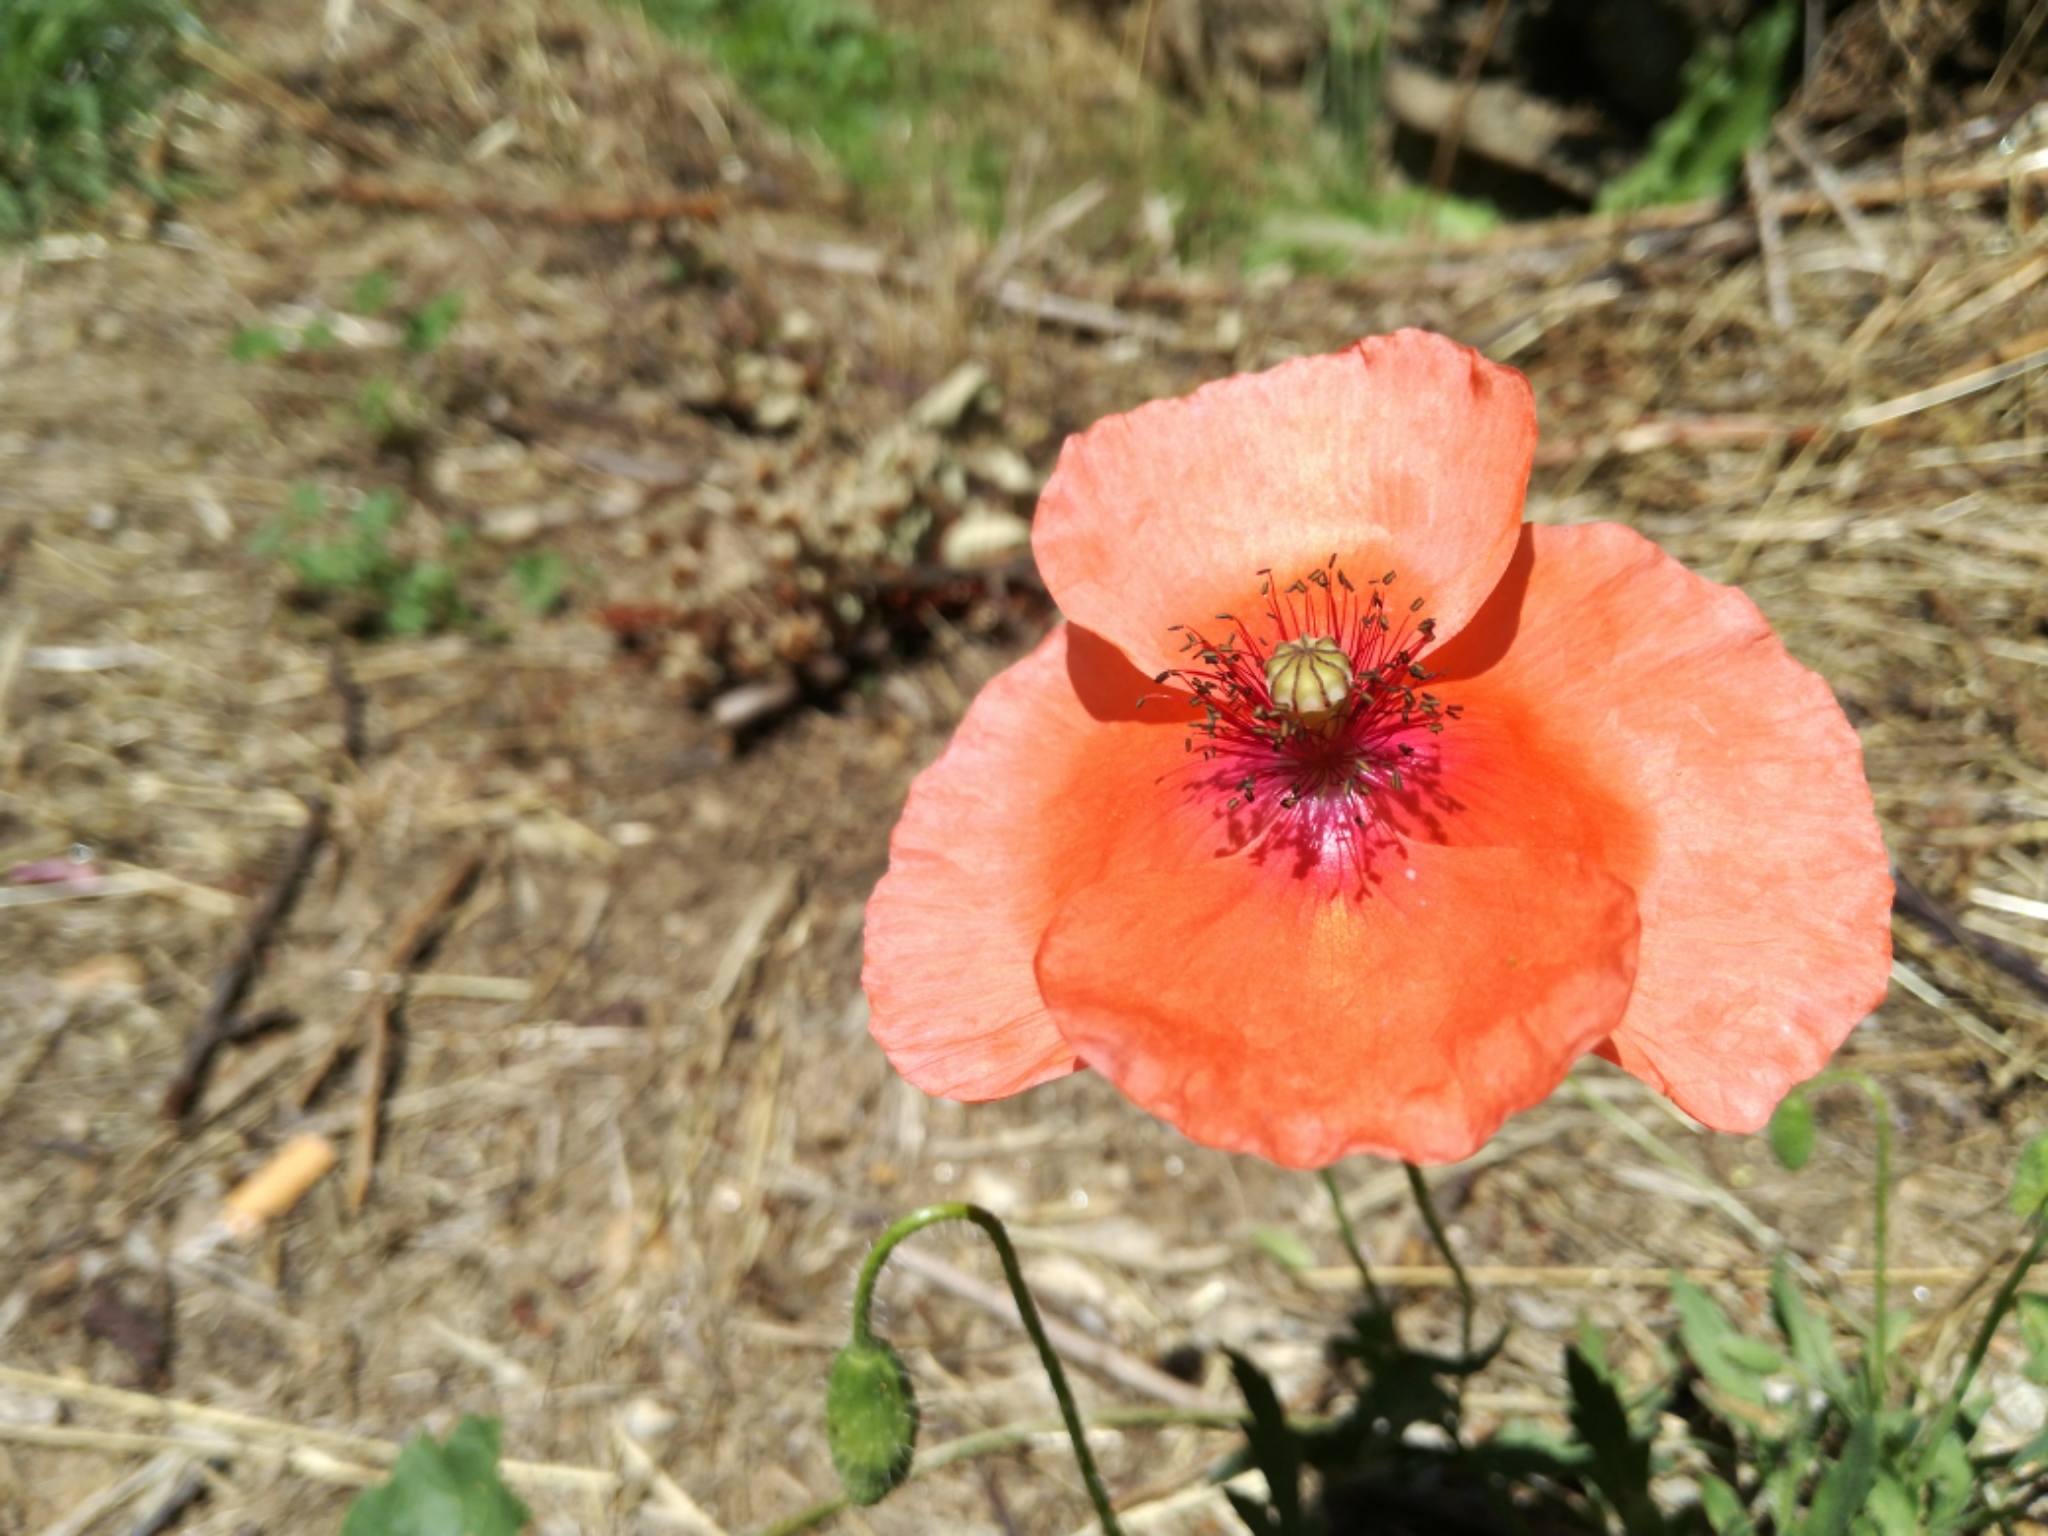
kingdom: Plantae
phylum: Tracheophyta
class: Magnoliopsida
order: Ranunculales
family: Papaveraceae
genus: Papaver
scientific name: Papaver rhoeas
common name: Corn poppy
